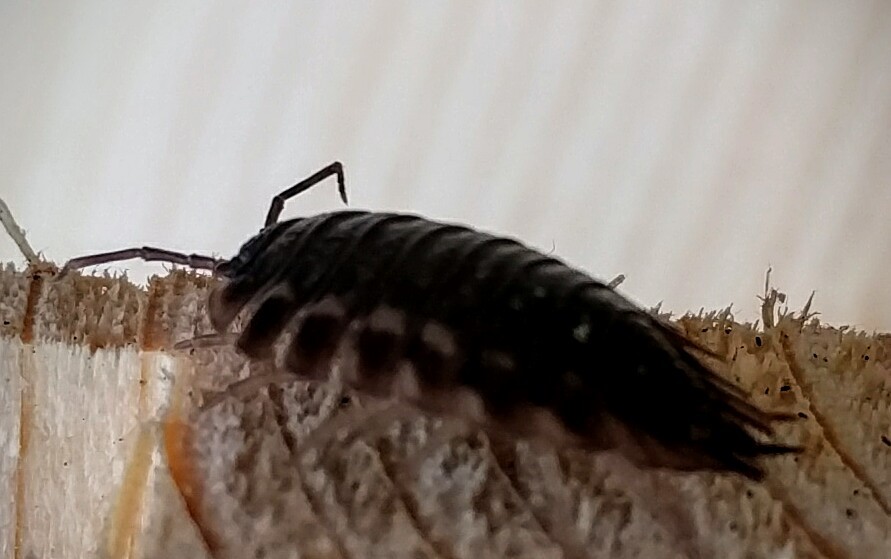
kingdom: Animalia
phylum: Arthropoda
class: Malacostraca
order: Isopoda
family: Oniscidae
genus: Oniscus
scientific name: Oniscus asellus
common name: Common shiny woodlouse
